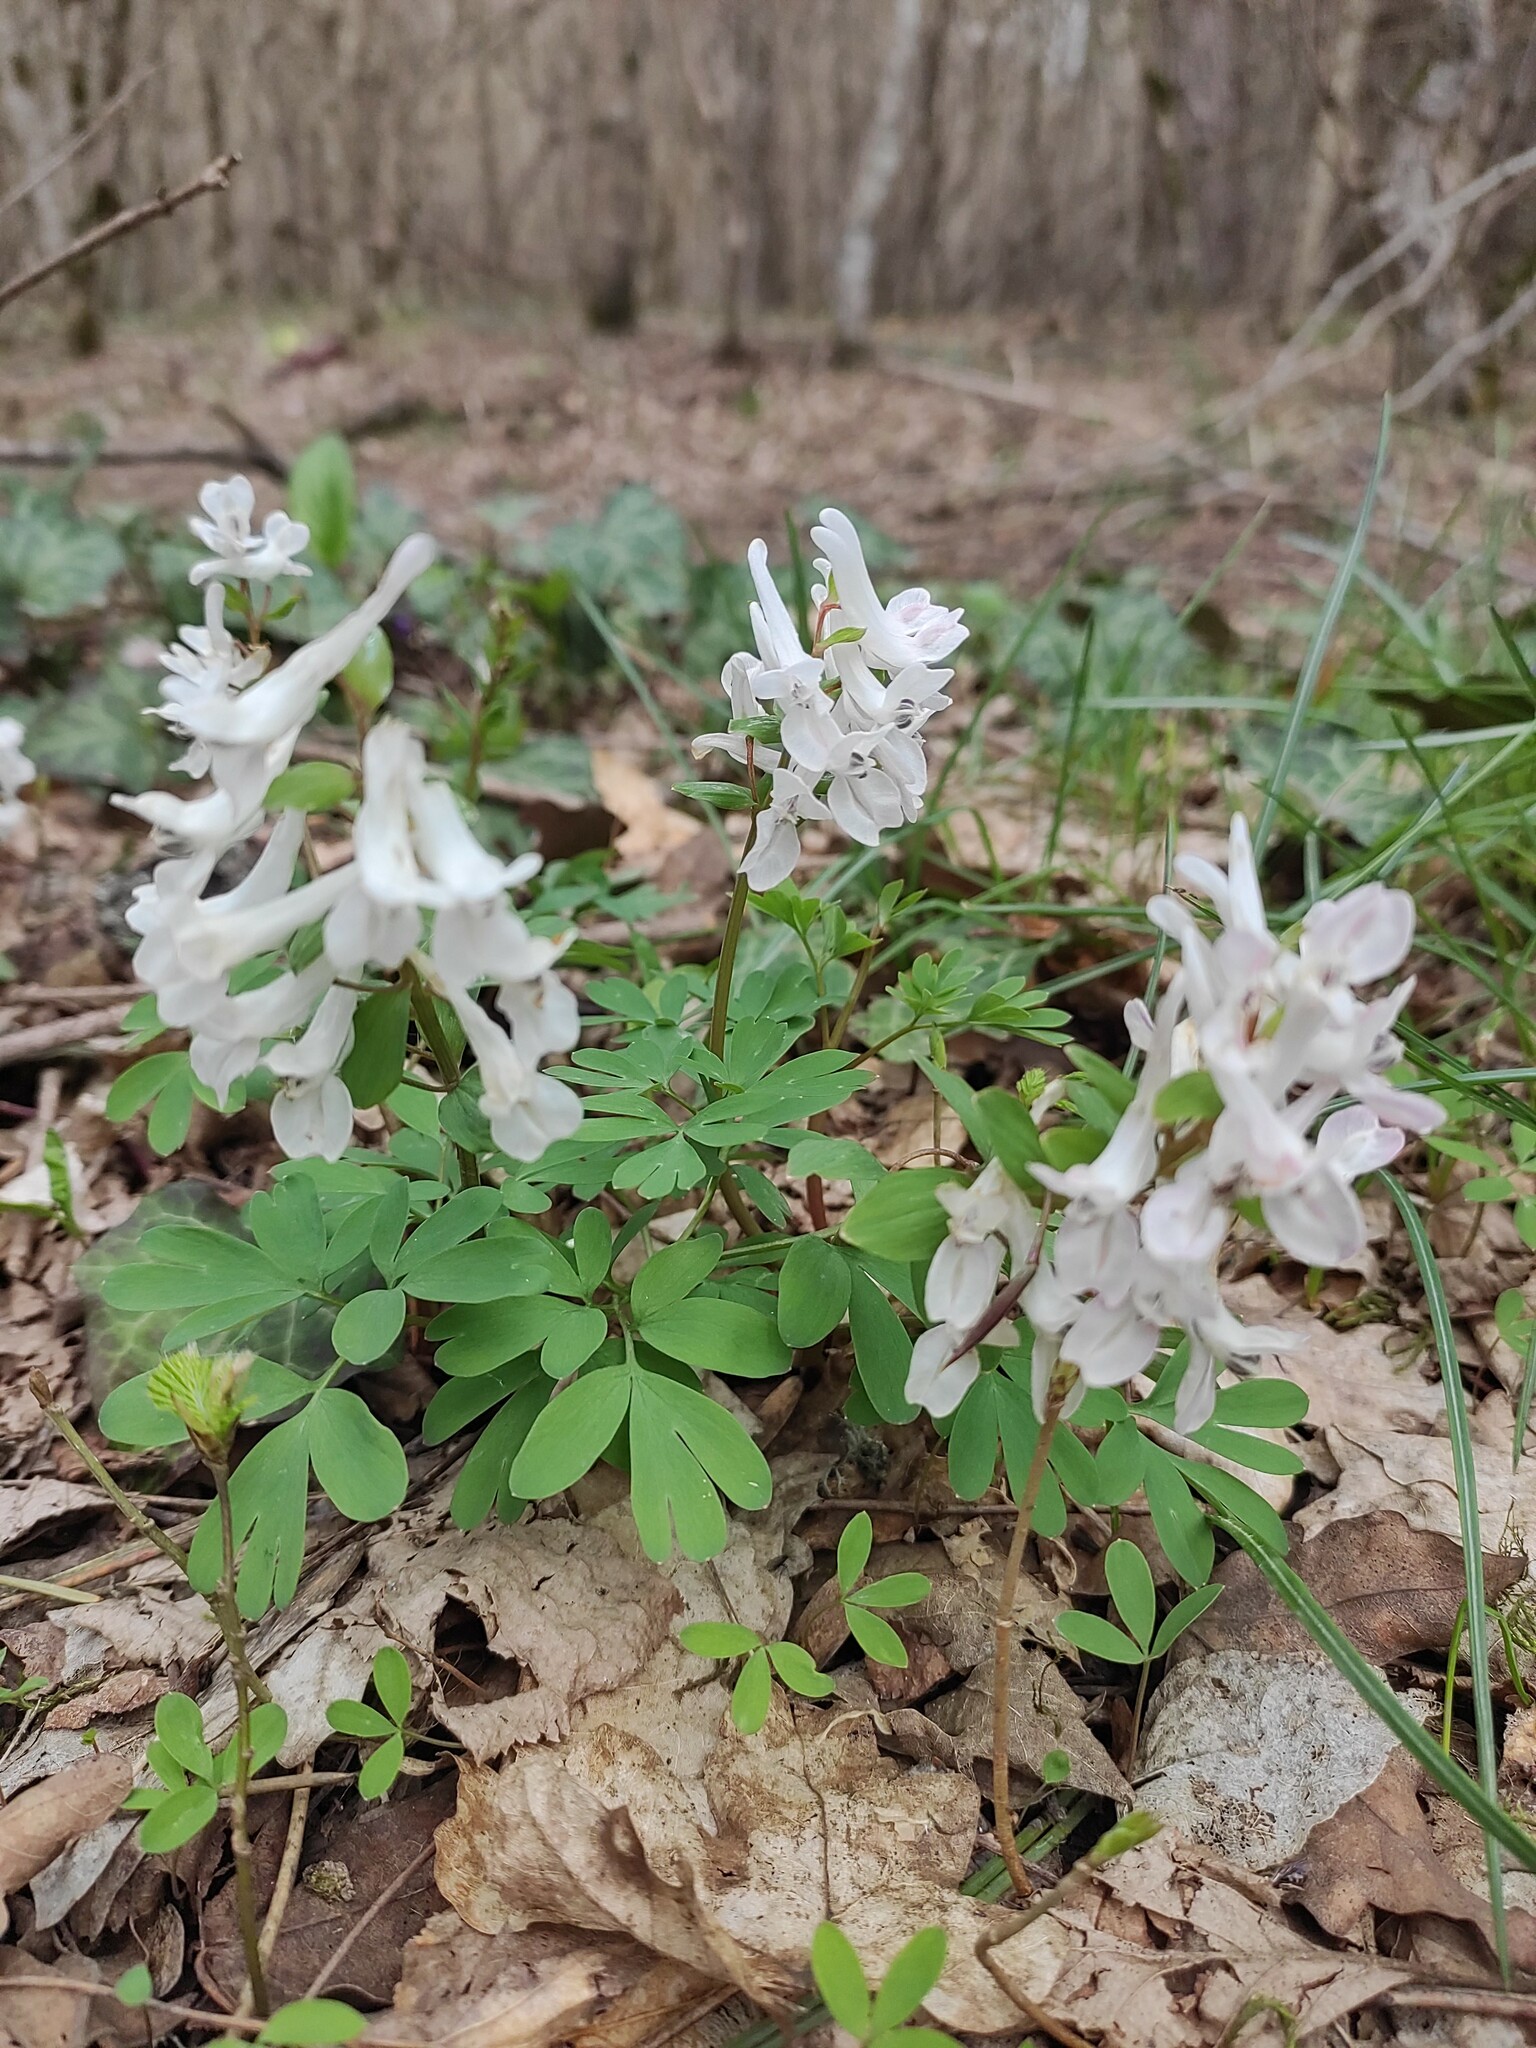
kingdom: Plantae
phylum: Tracheophyta
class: Magnoliopsida
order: Ranunculales
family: Papaveraceae
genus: Corydalis
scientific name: Corydalis caucasica
